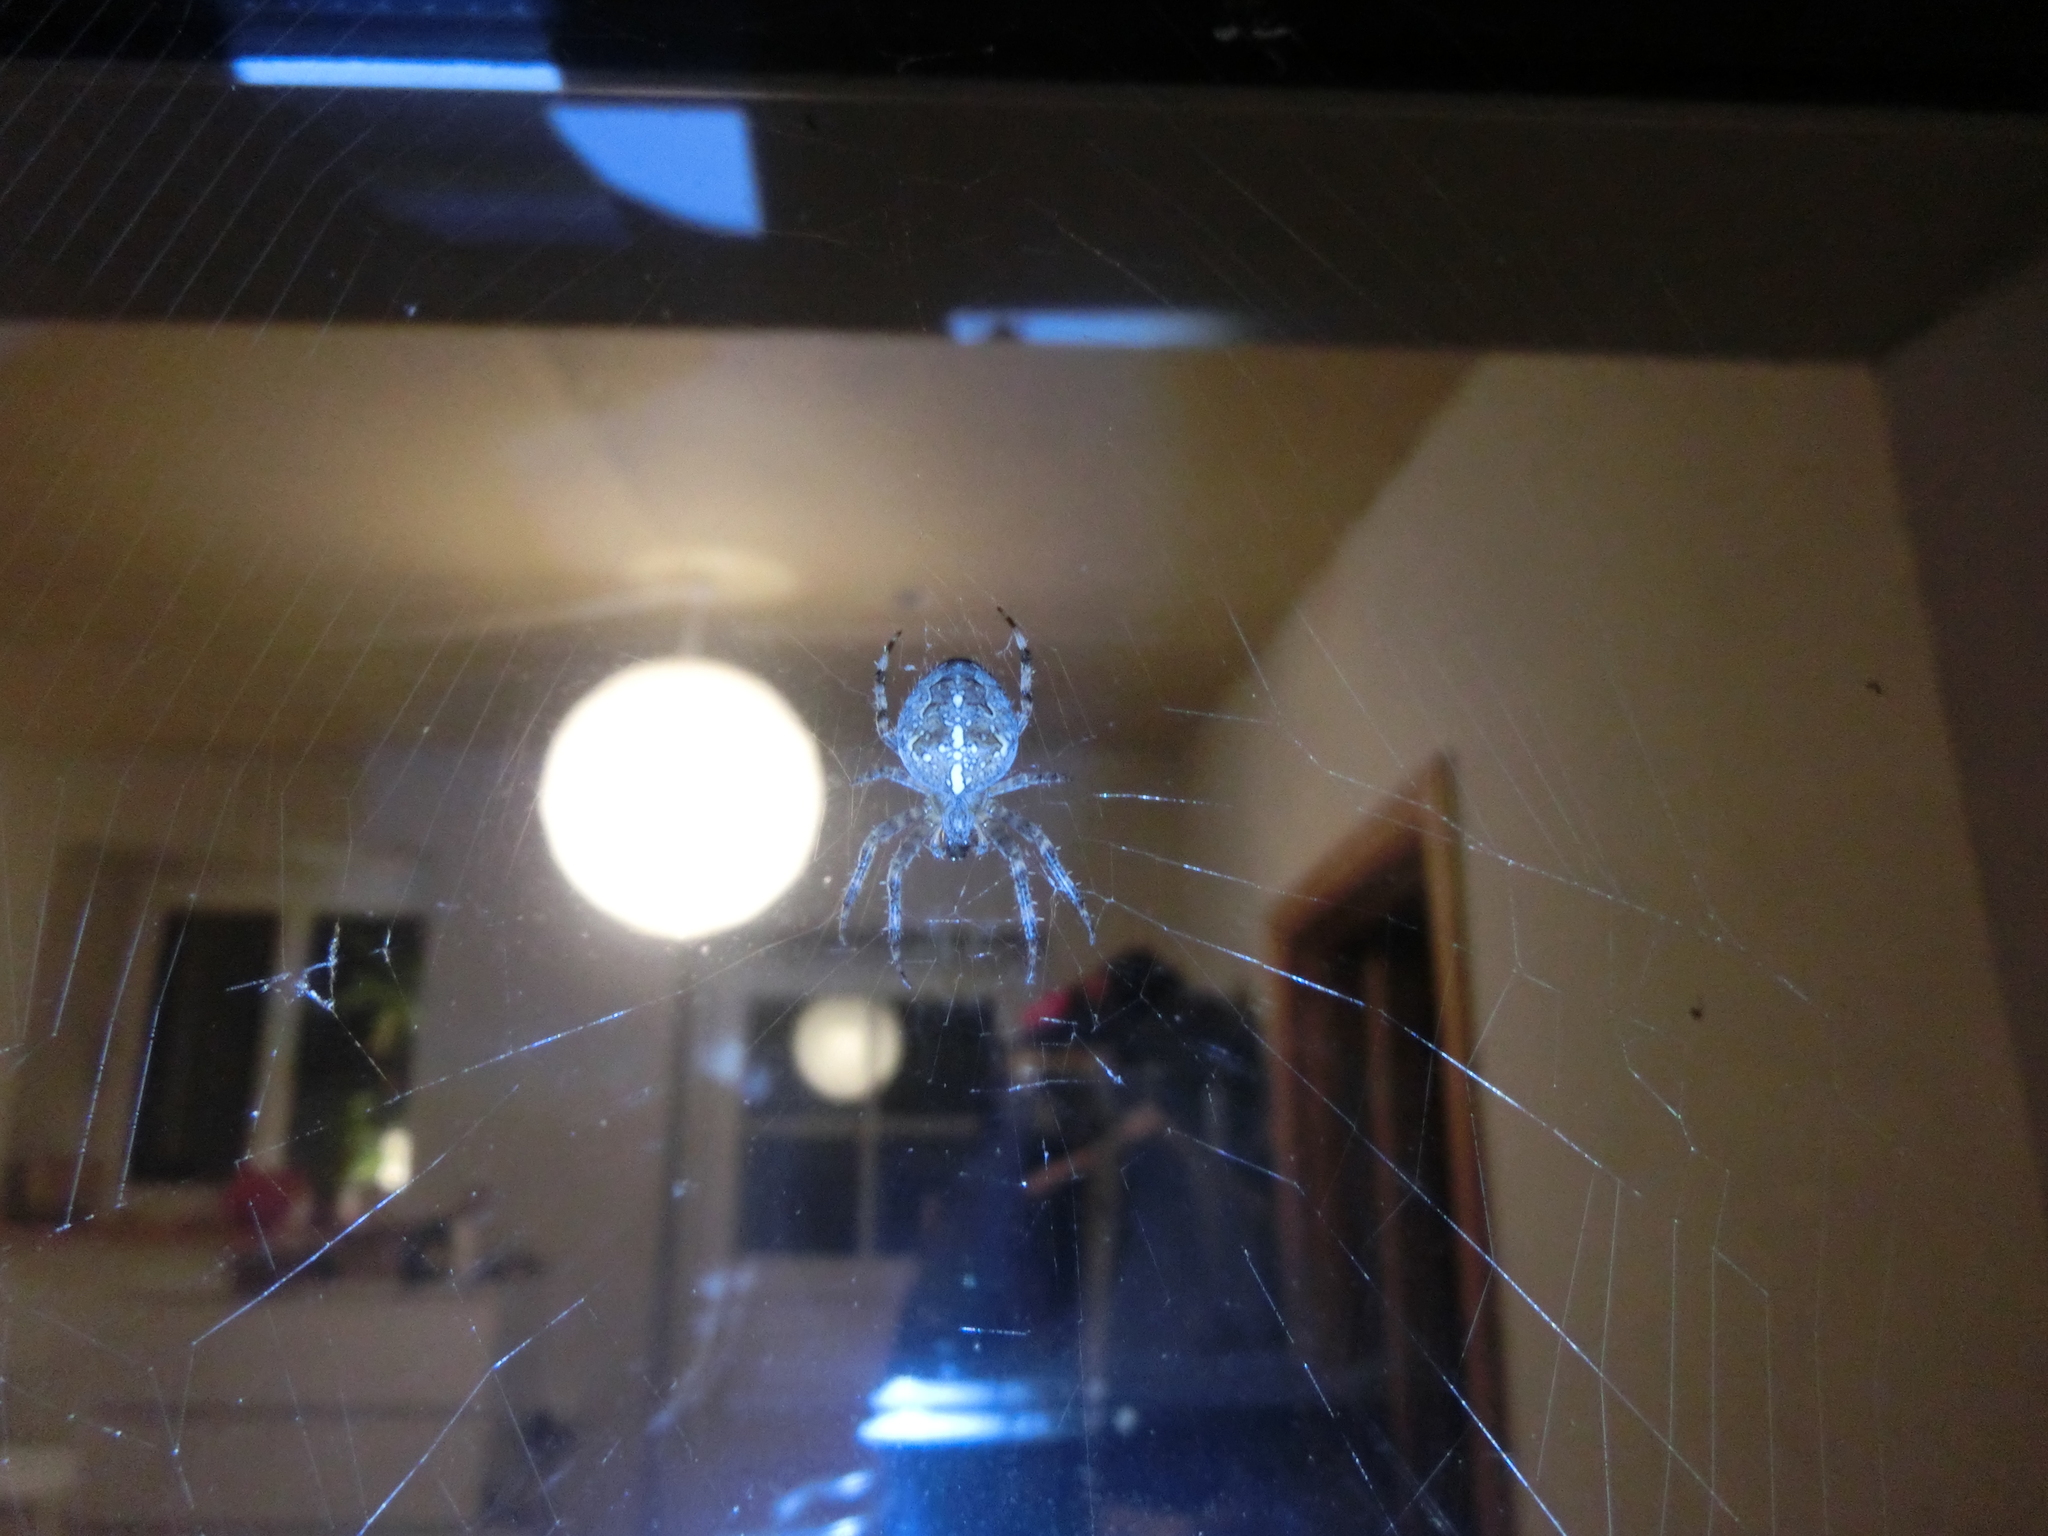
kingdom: Animalia
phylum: Arthropoda
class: Arachnida
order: Araneae
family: Araneidae
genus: Araneus
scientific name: Araneus diadematus
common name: Cross orbweaver
